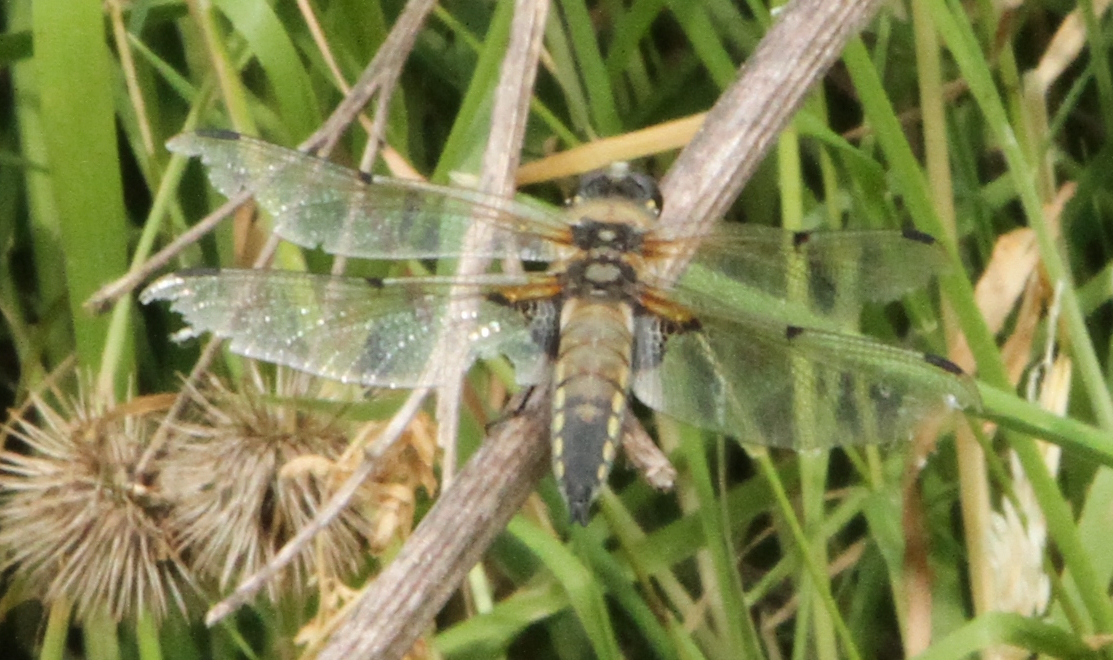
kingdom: Animalia
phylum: Arthropoda
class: Insecta
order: Odonata
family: Libellulidae
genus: Libellula
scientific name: Libellula quadrimaculata
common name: Four-spotted chaser
